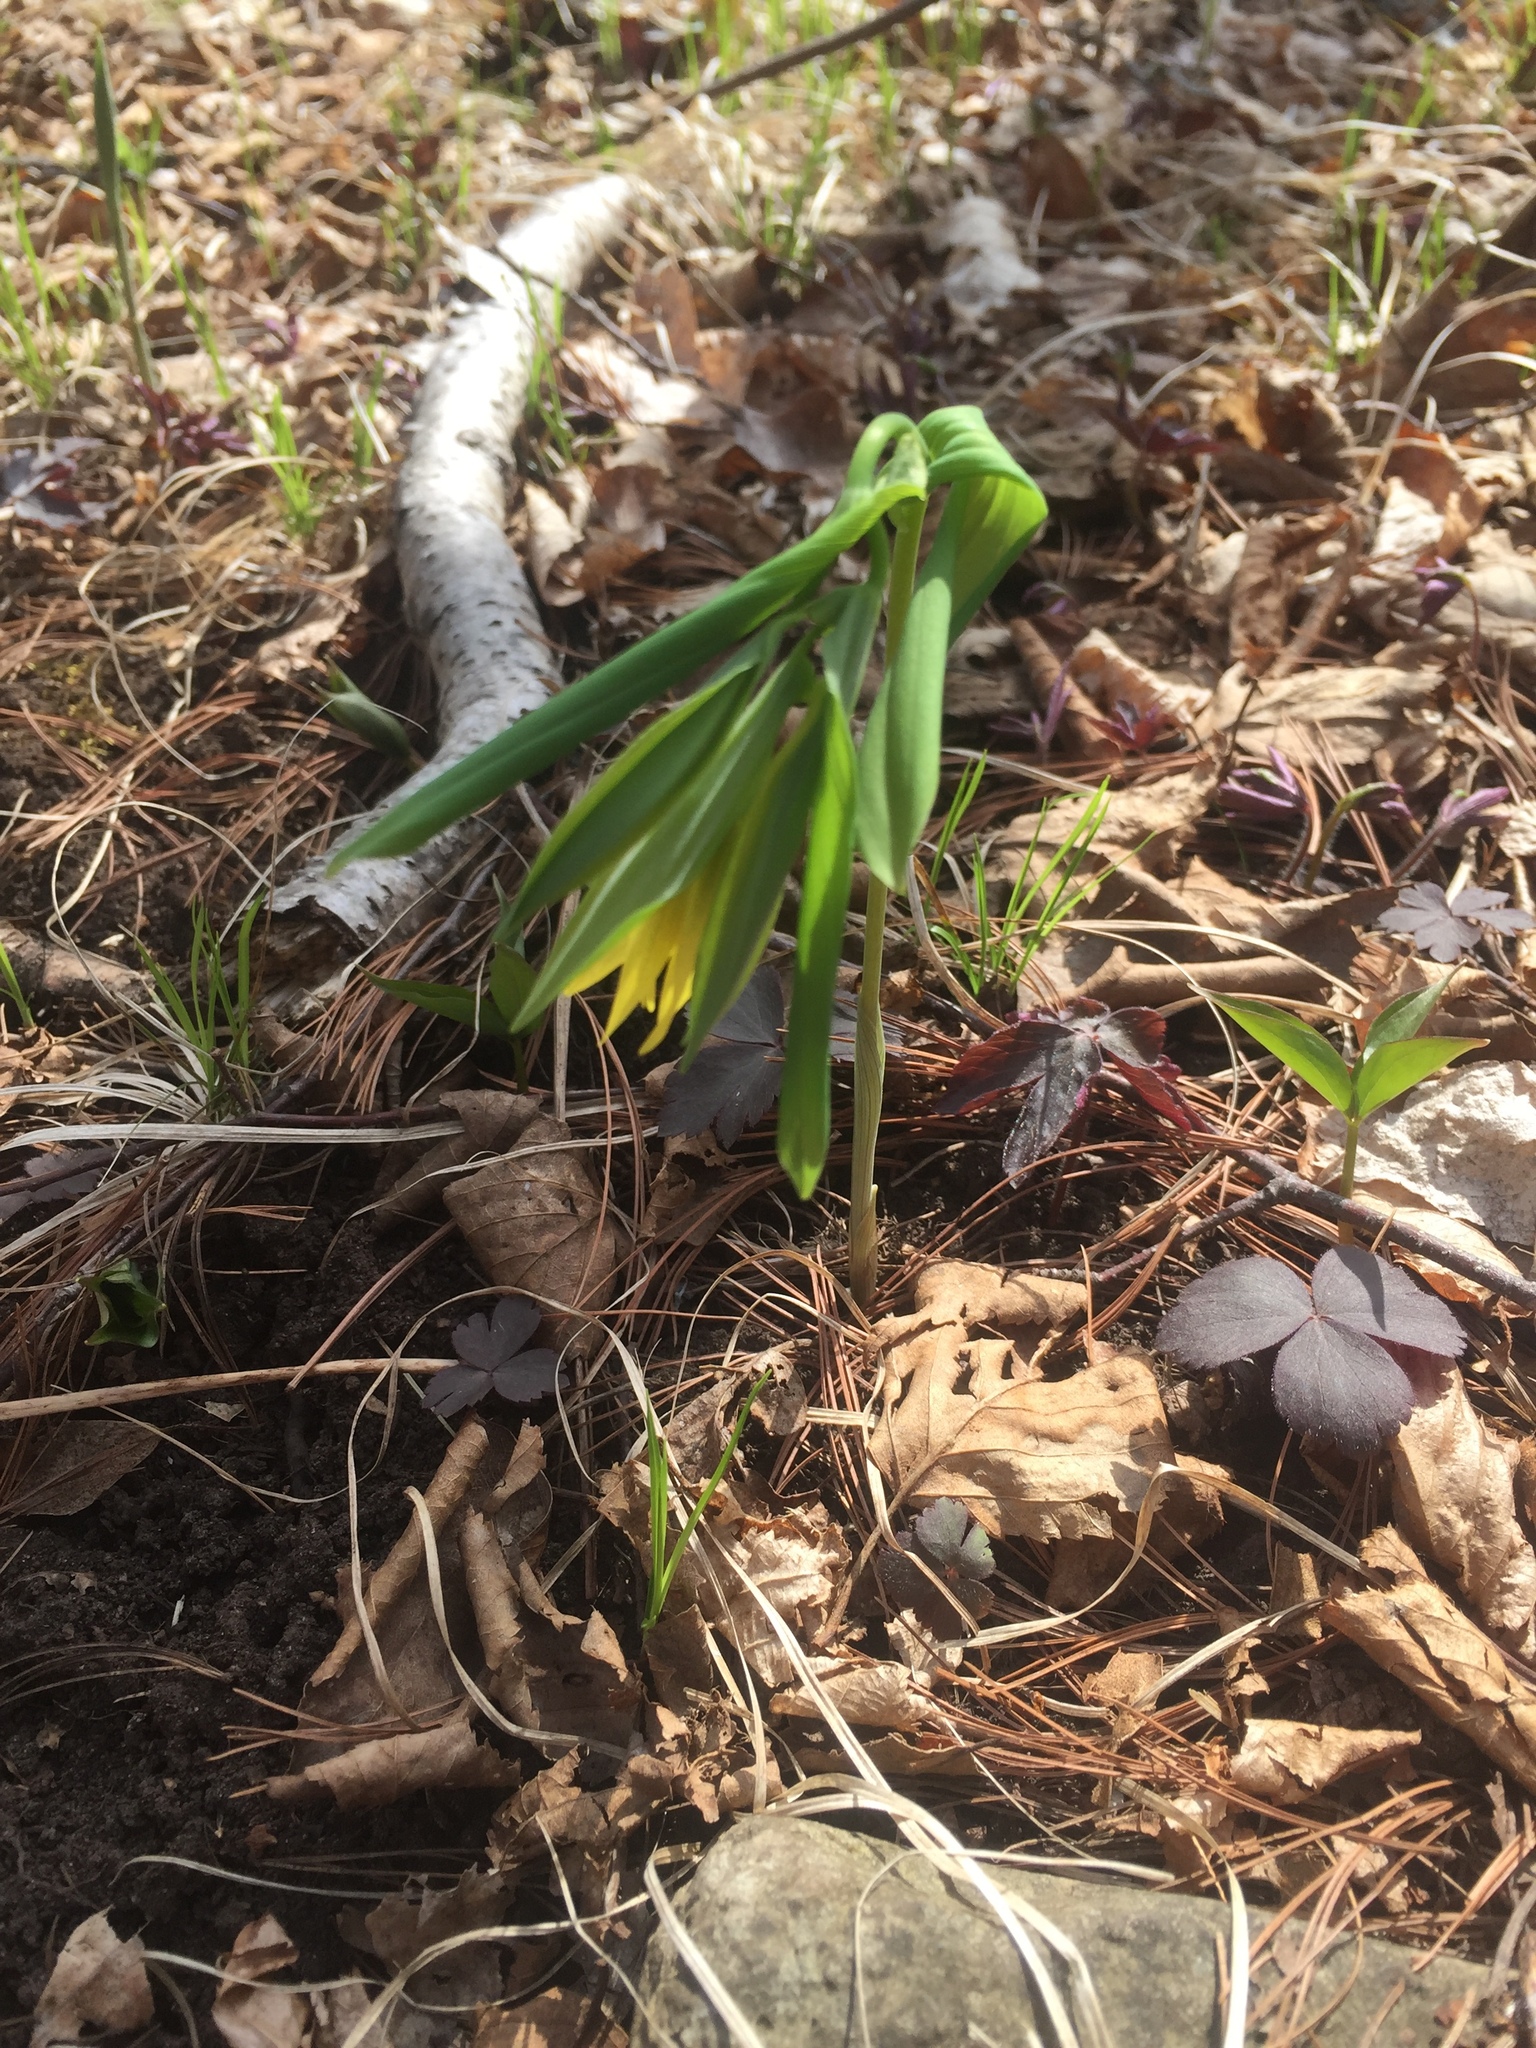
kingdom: Plantae
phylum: Tracheophyta
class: Liliopsida
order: Liliales
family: Colchicaceae
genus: Uvularia
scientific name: Uvularia grandiflora
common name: Bellwort
